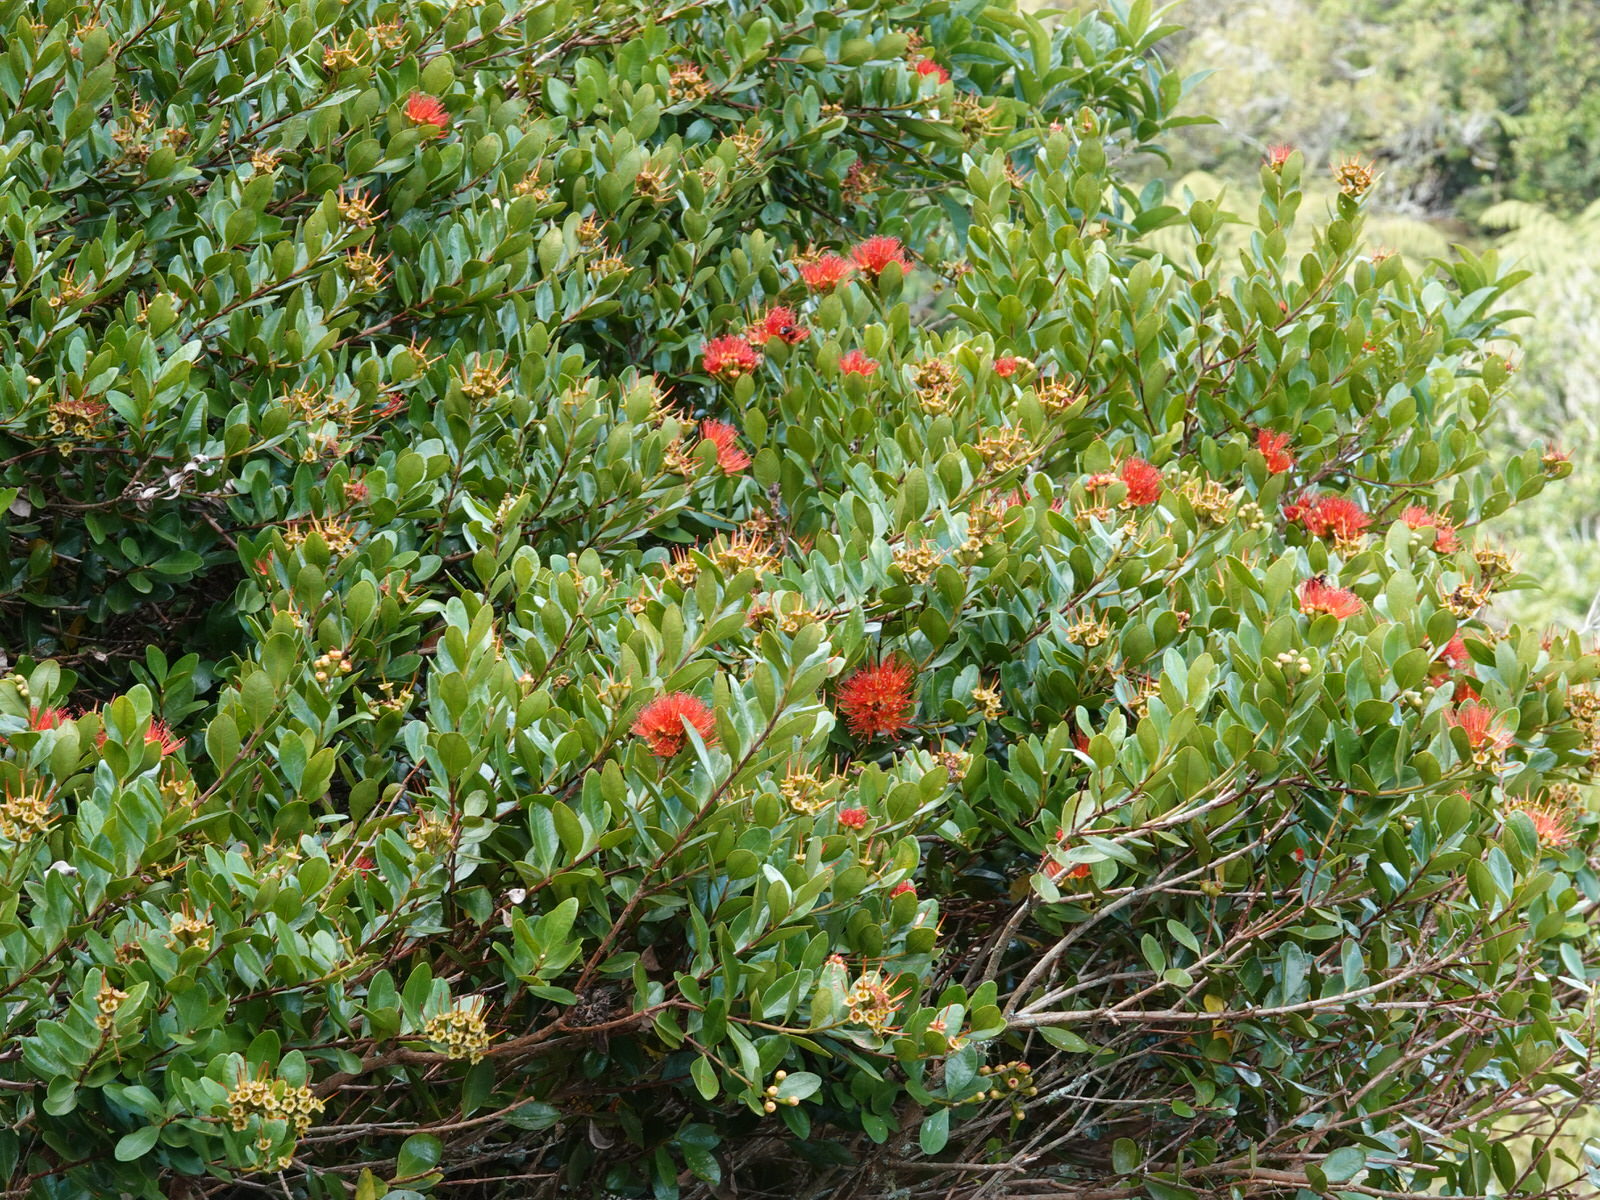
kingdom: Plantae
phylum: Tracheophyta
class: Magnoliopsida
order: Myrtales
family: Myrtaceae
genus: Metrosideros
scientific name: Metrosideros fulgens
